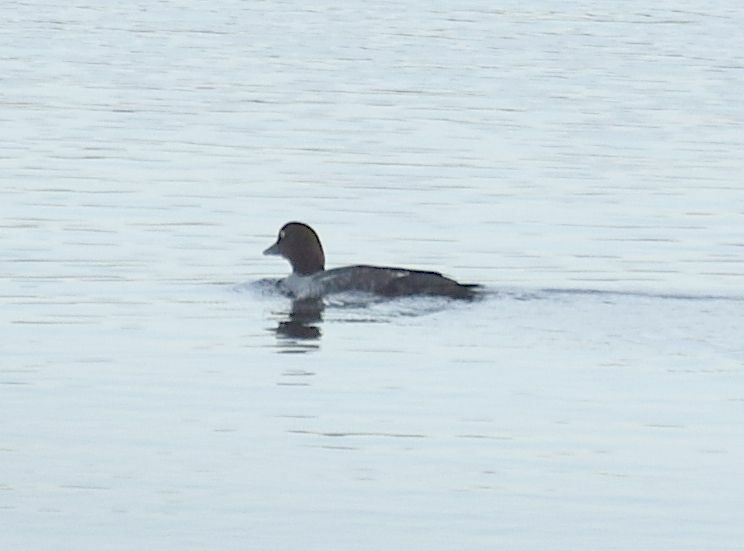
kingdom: Animalia
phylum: Chordata
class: Aves
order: Anseriformes
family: Anatidae
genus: Bucephala
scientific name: Bucephala clangula
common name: Common goldeneye
